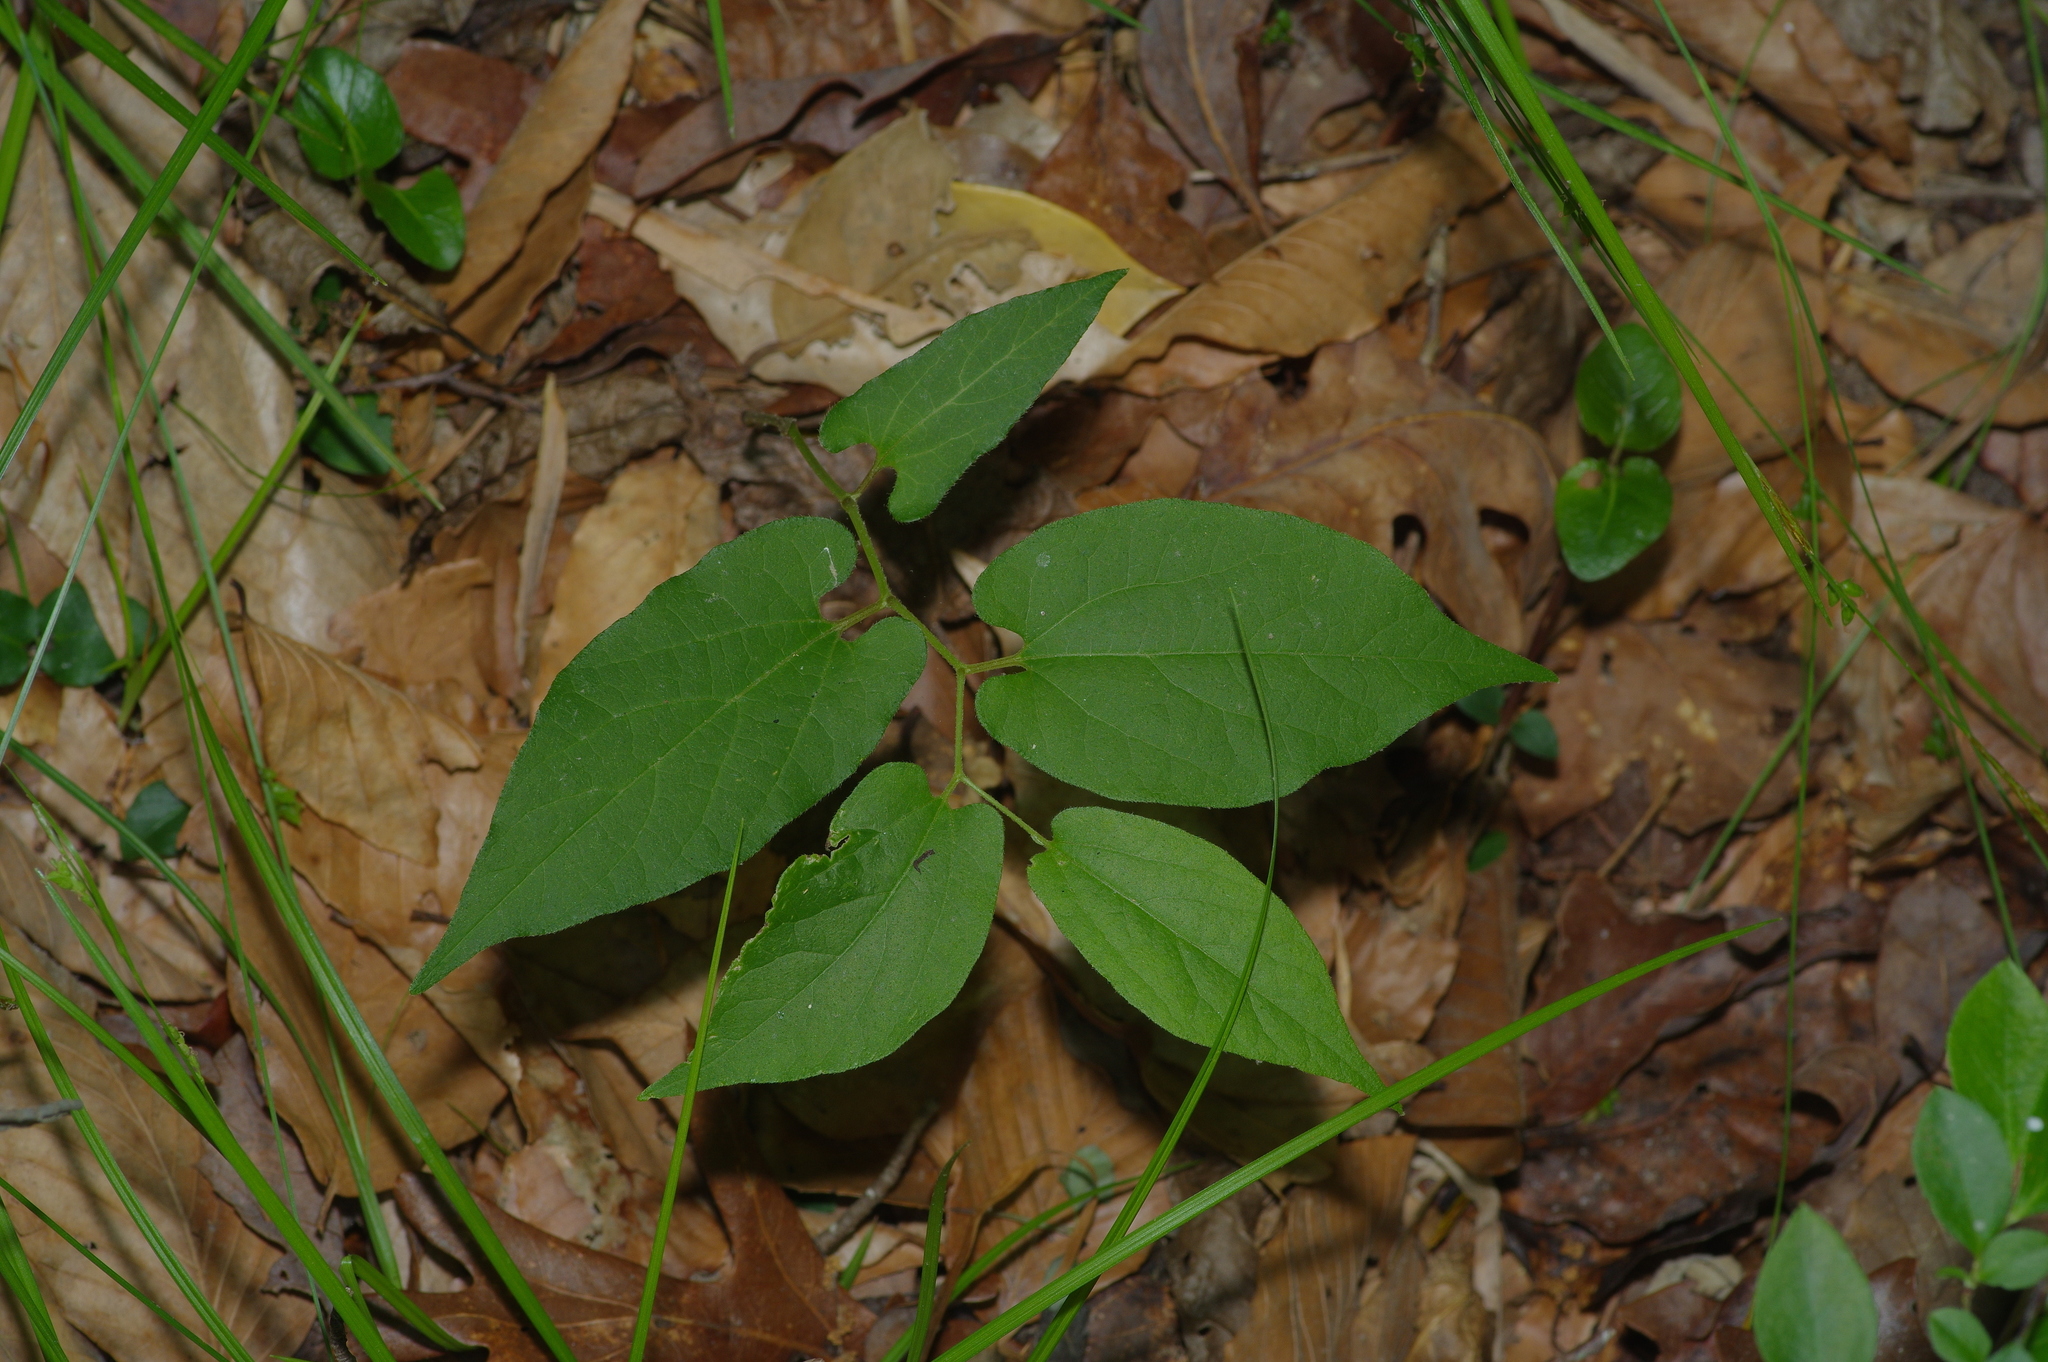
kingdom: Plantae
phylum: Tracheophyta
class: Magnoliopsida
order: Piperales
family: Aristolochiaceae
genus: Endodeca
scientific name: Endodeca serpentaria
